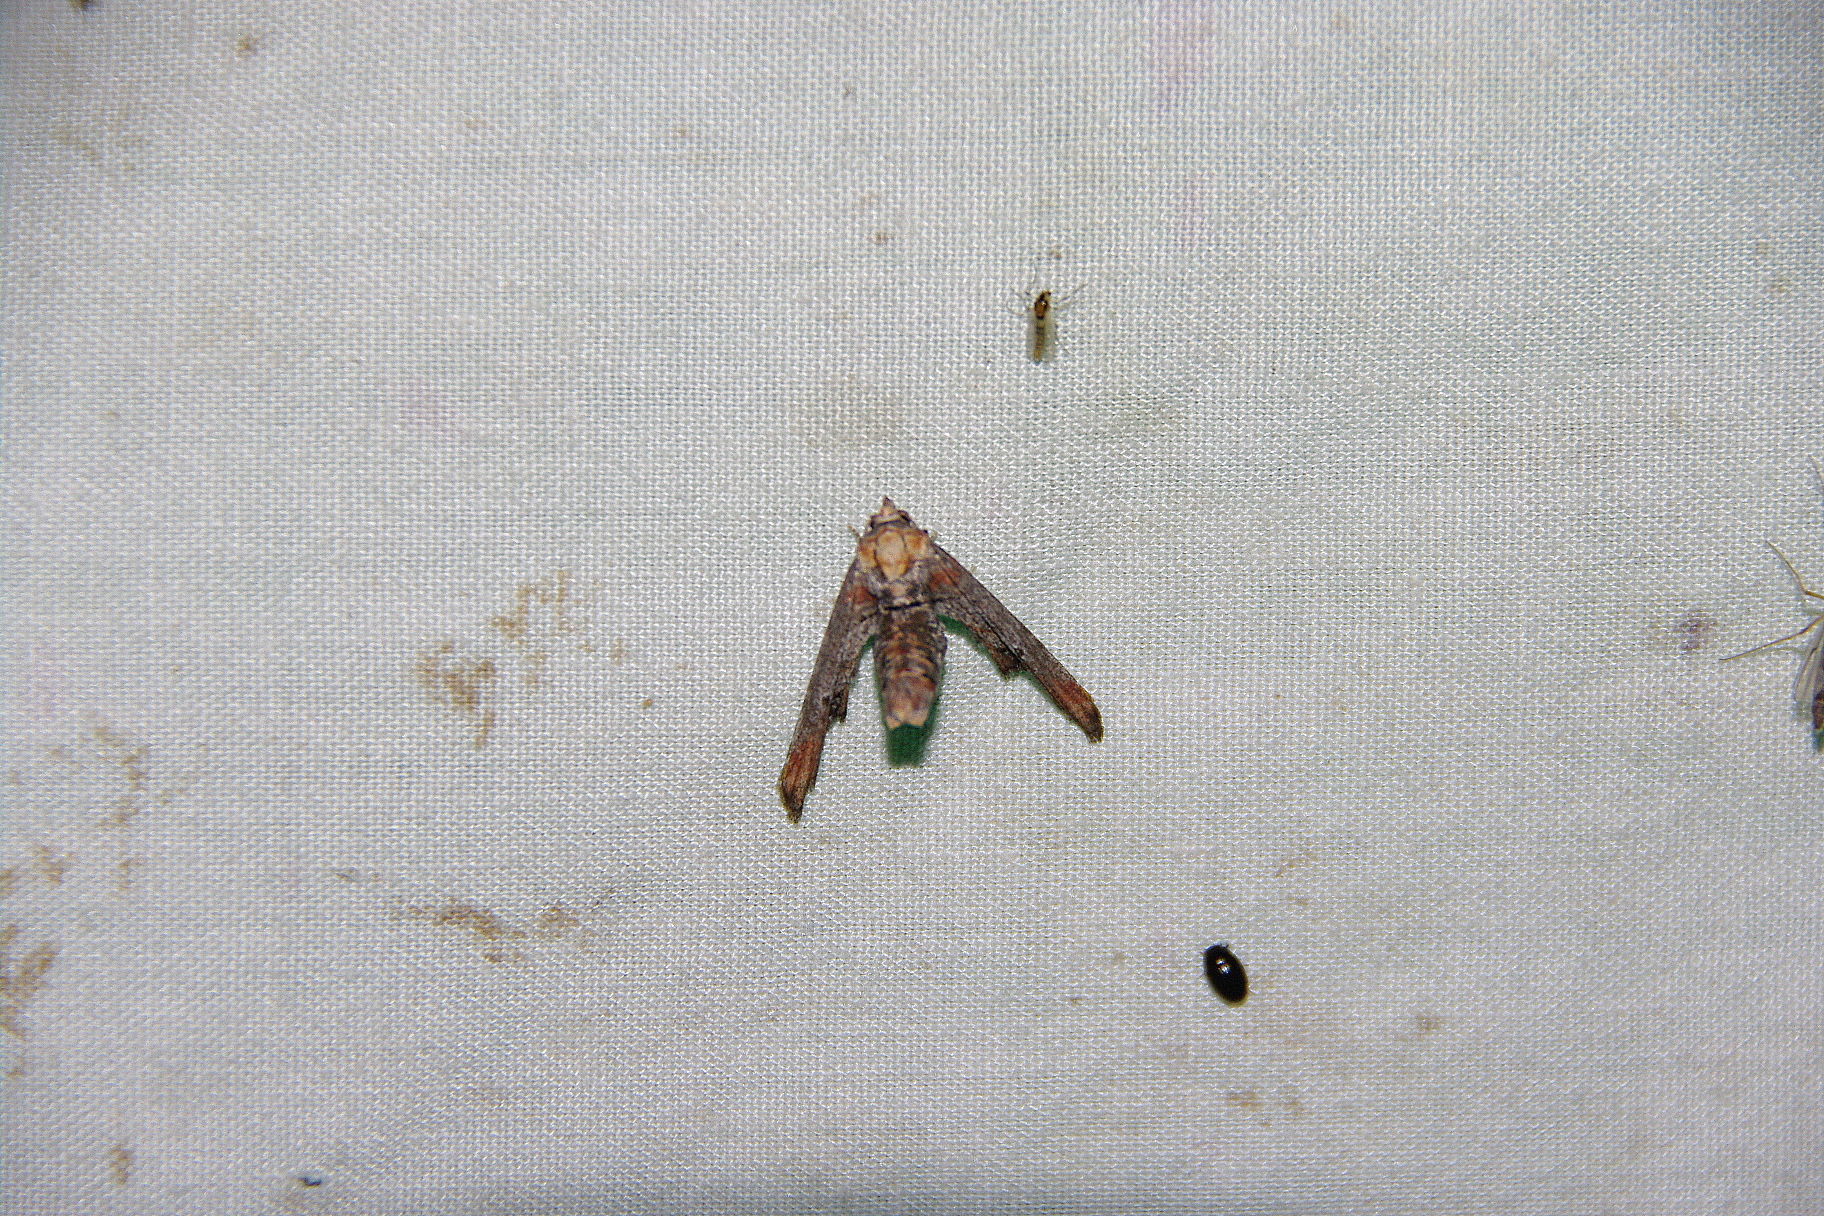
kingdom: Animalia
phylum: Arthropoda
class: Insecta
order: Lepidoptera
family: Euteliidae
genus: Marathyssa
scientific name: Marathyssa inficita
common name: Dark marathyssa moth
